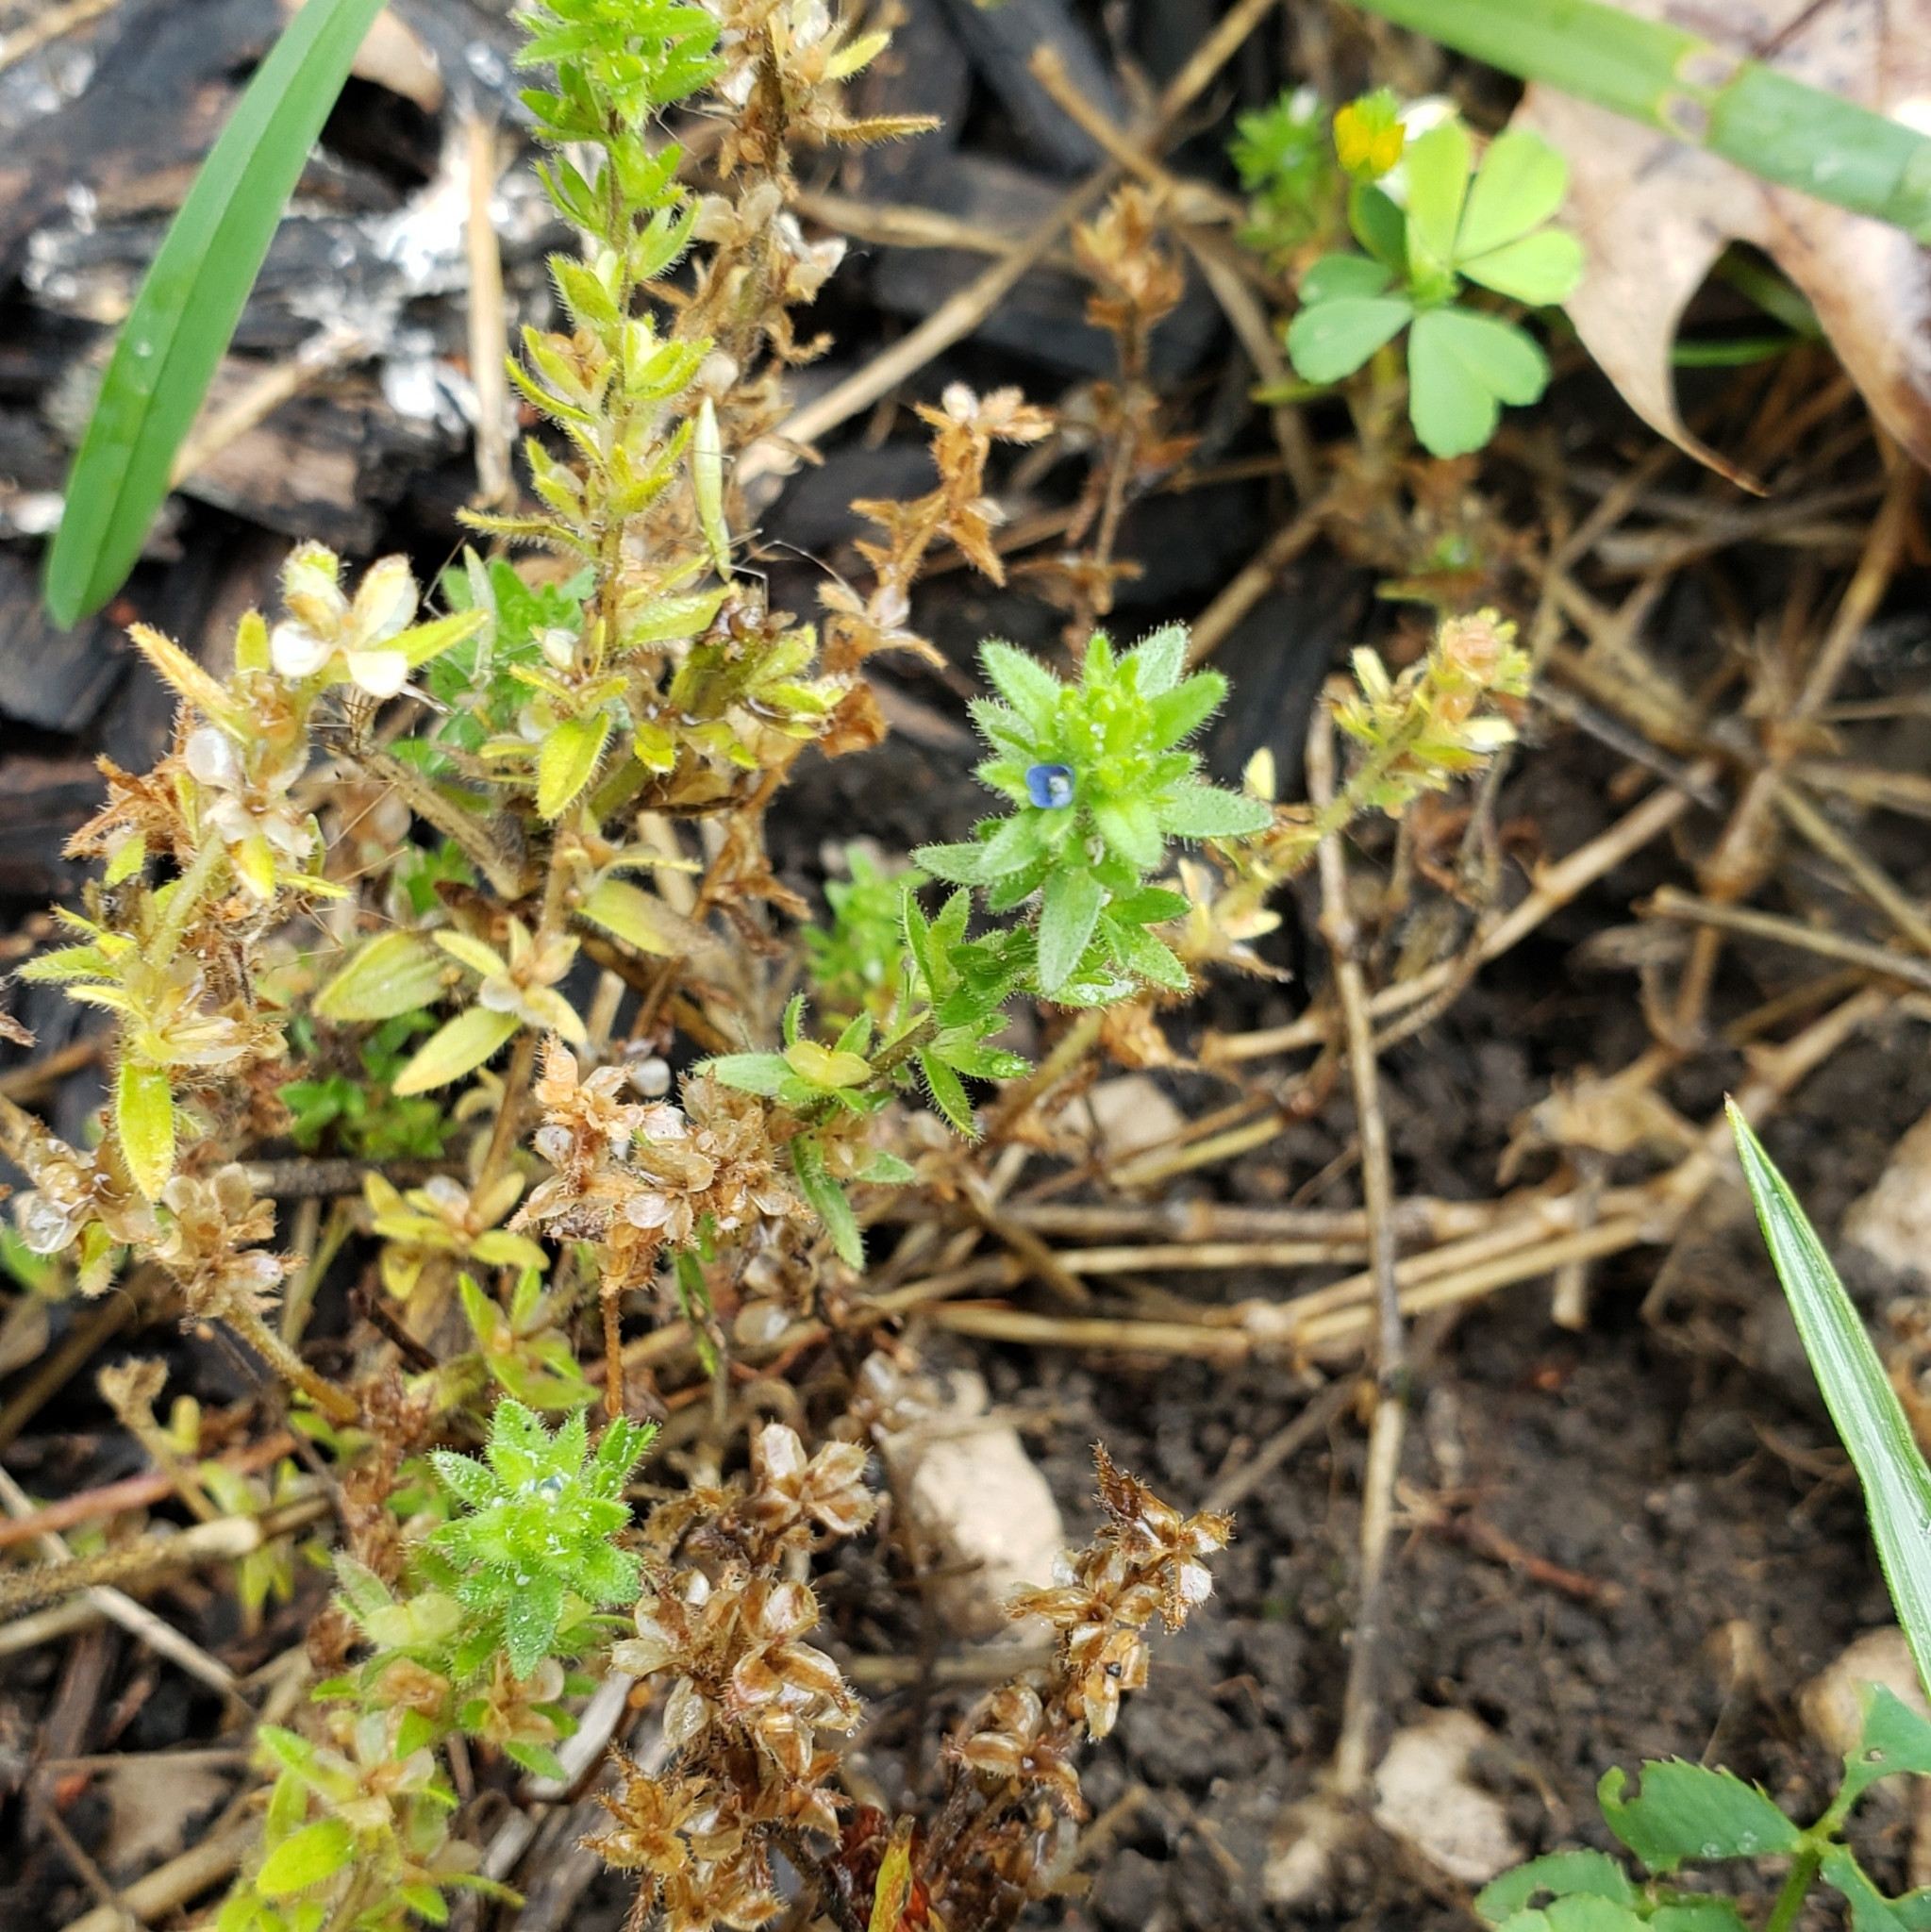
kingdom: Plantae
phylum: Tracheophyta
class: Magnoliopsida
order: Lamiales
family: Plantaginaceae
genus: Veronica
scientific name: Veronica arvensis
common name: Corn speedwell
